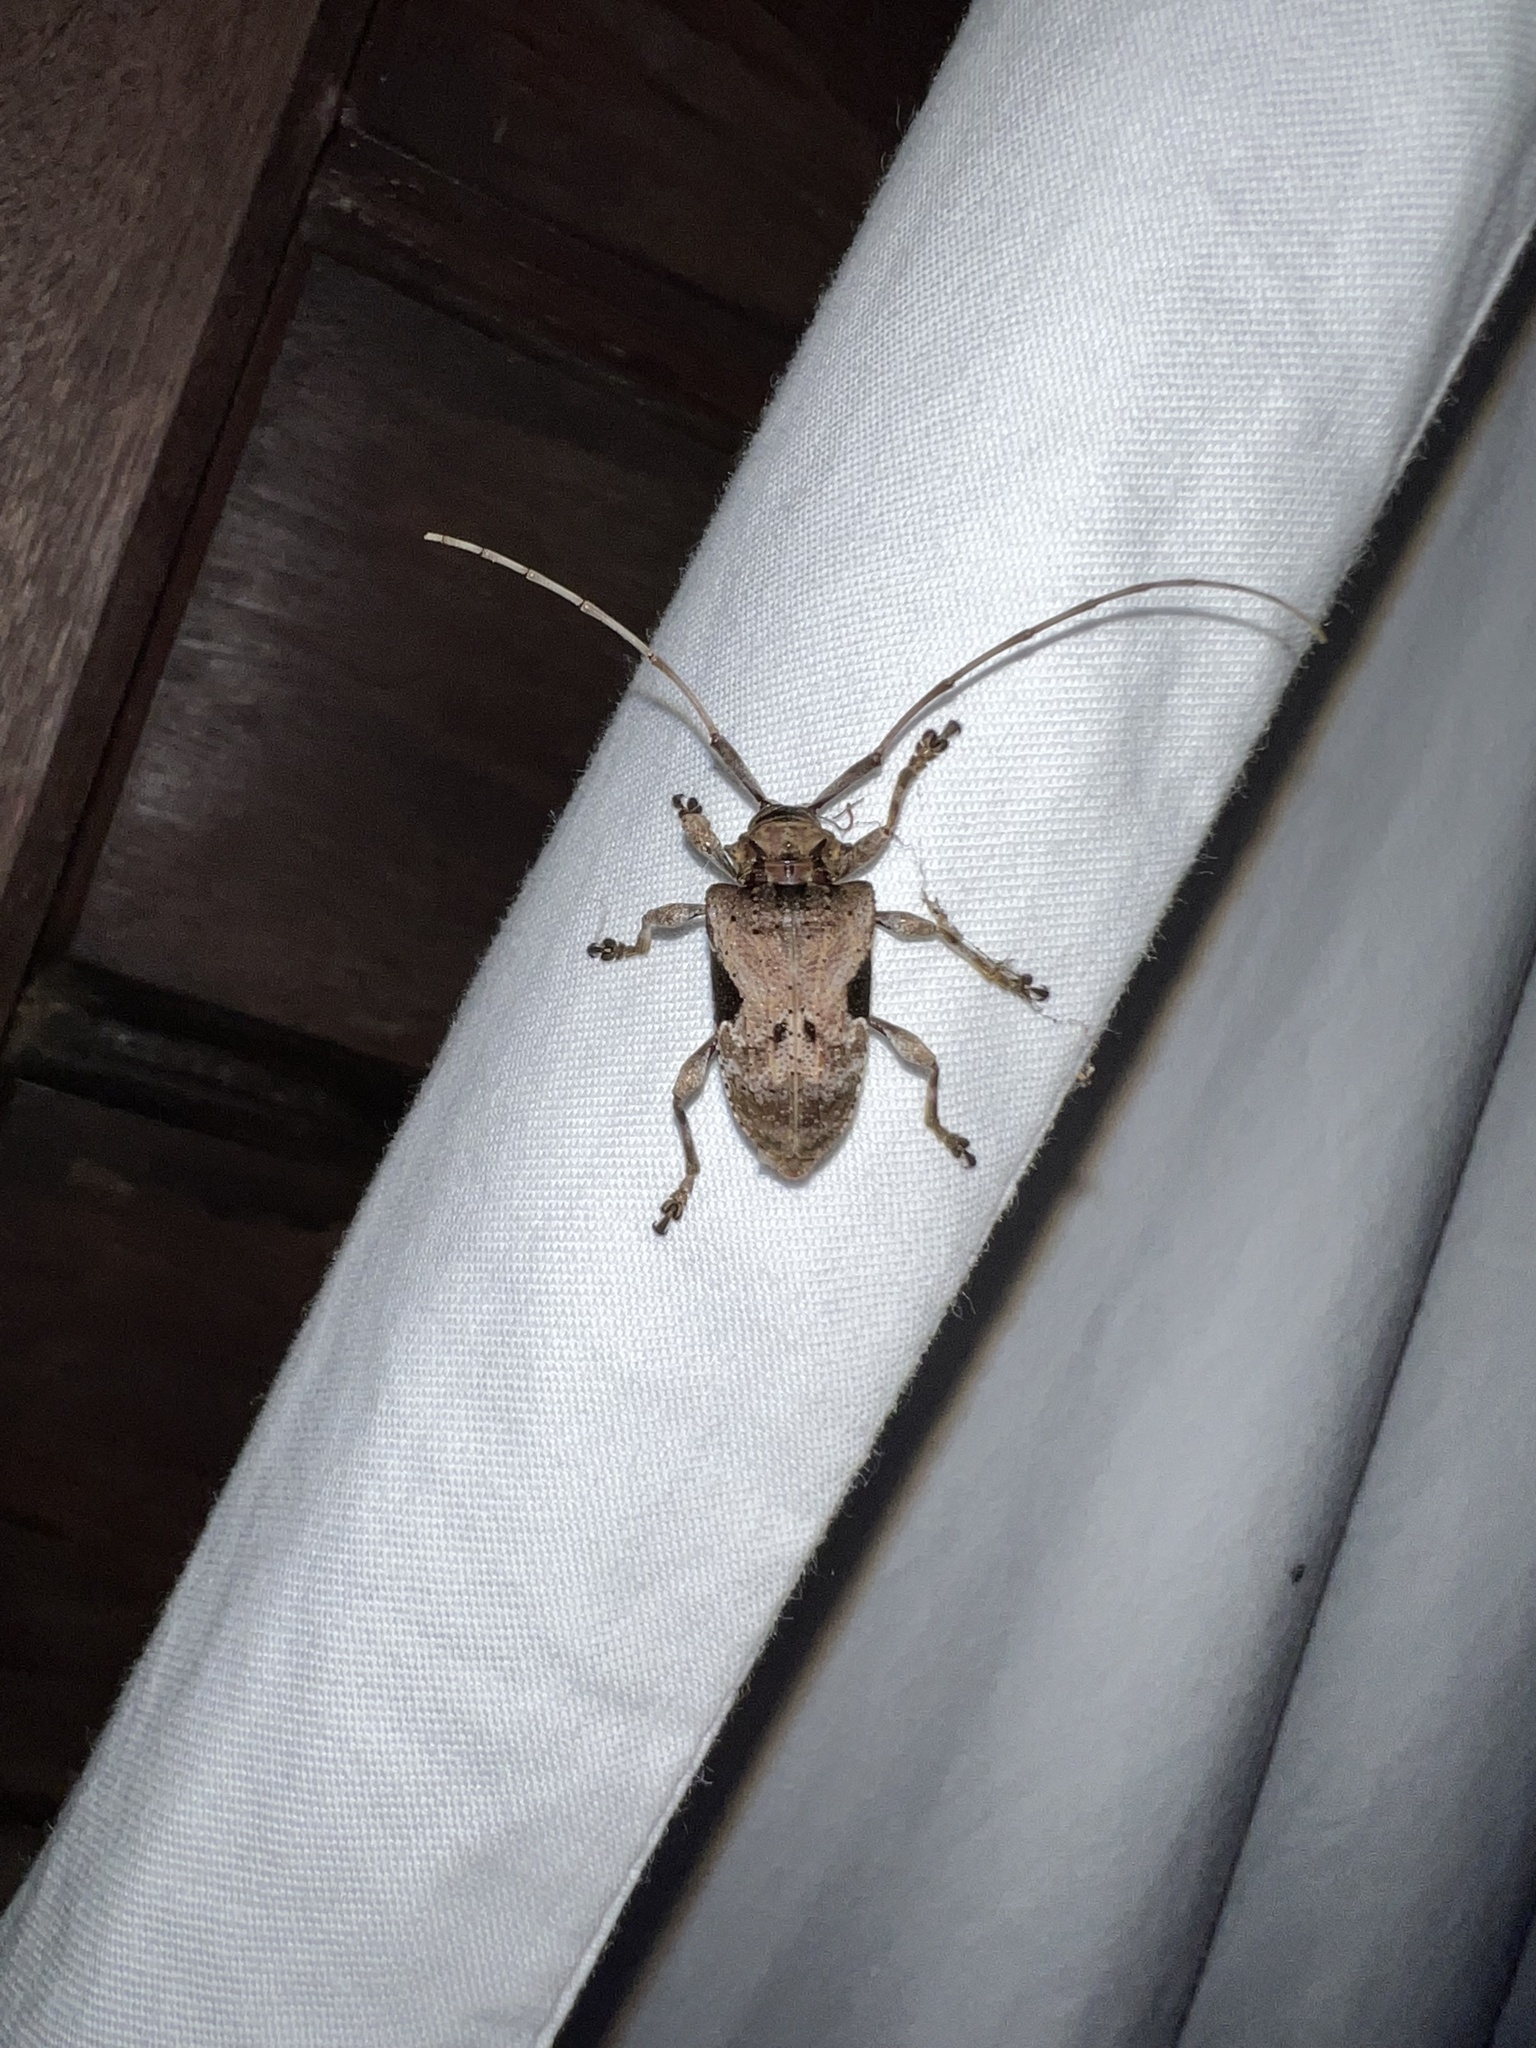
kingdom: Animalia
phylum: Arthropoda
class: Insecta
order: Coleoptera
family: Cerambycidae
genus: Lagocheirus
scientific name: Lagocheirus araneiformis
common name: Beetle
